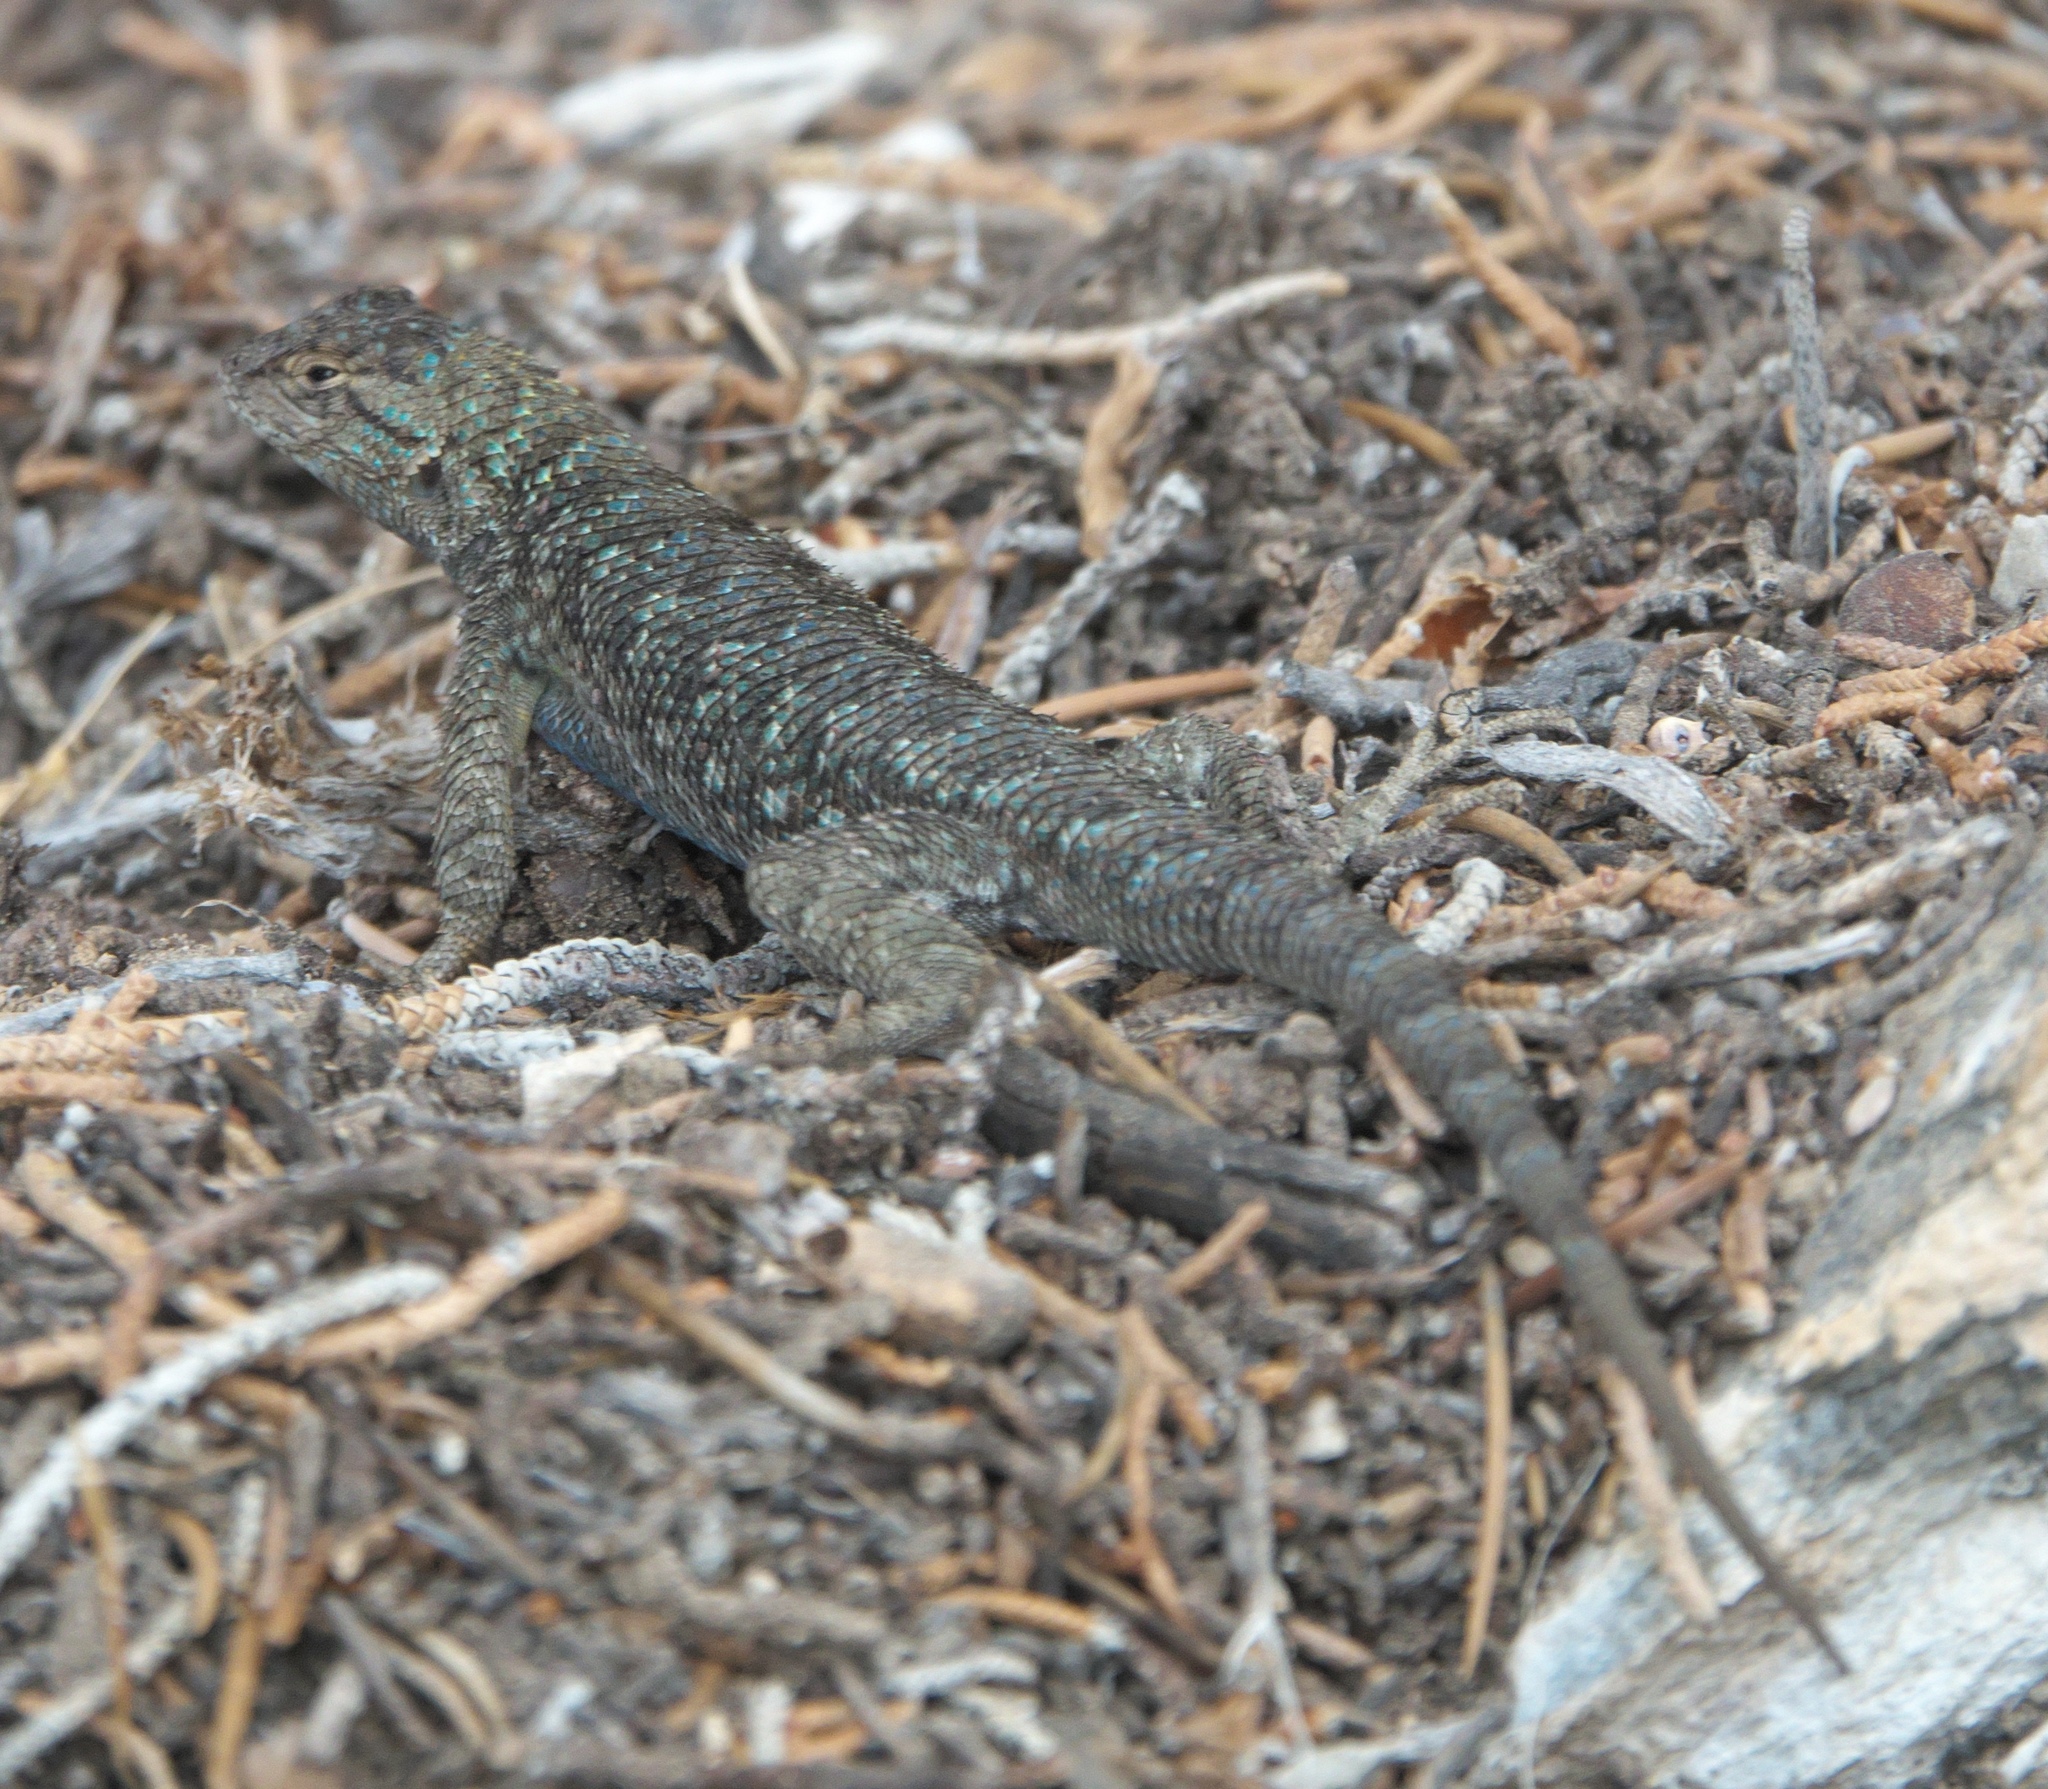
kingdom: Animalia
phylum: Chordata
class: Squamata
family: Phrynosomatidae
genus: Sceloporus
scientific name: Sceloporus occidentalis
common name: Western fence lizard
